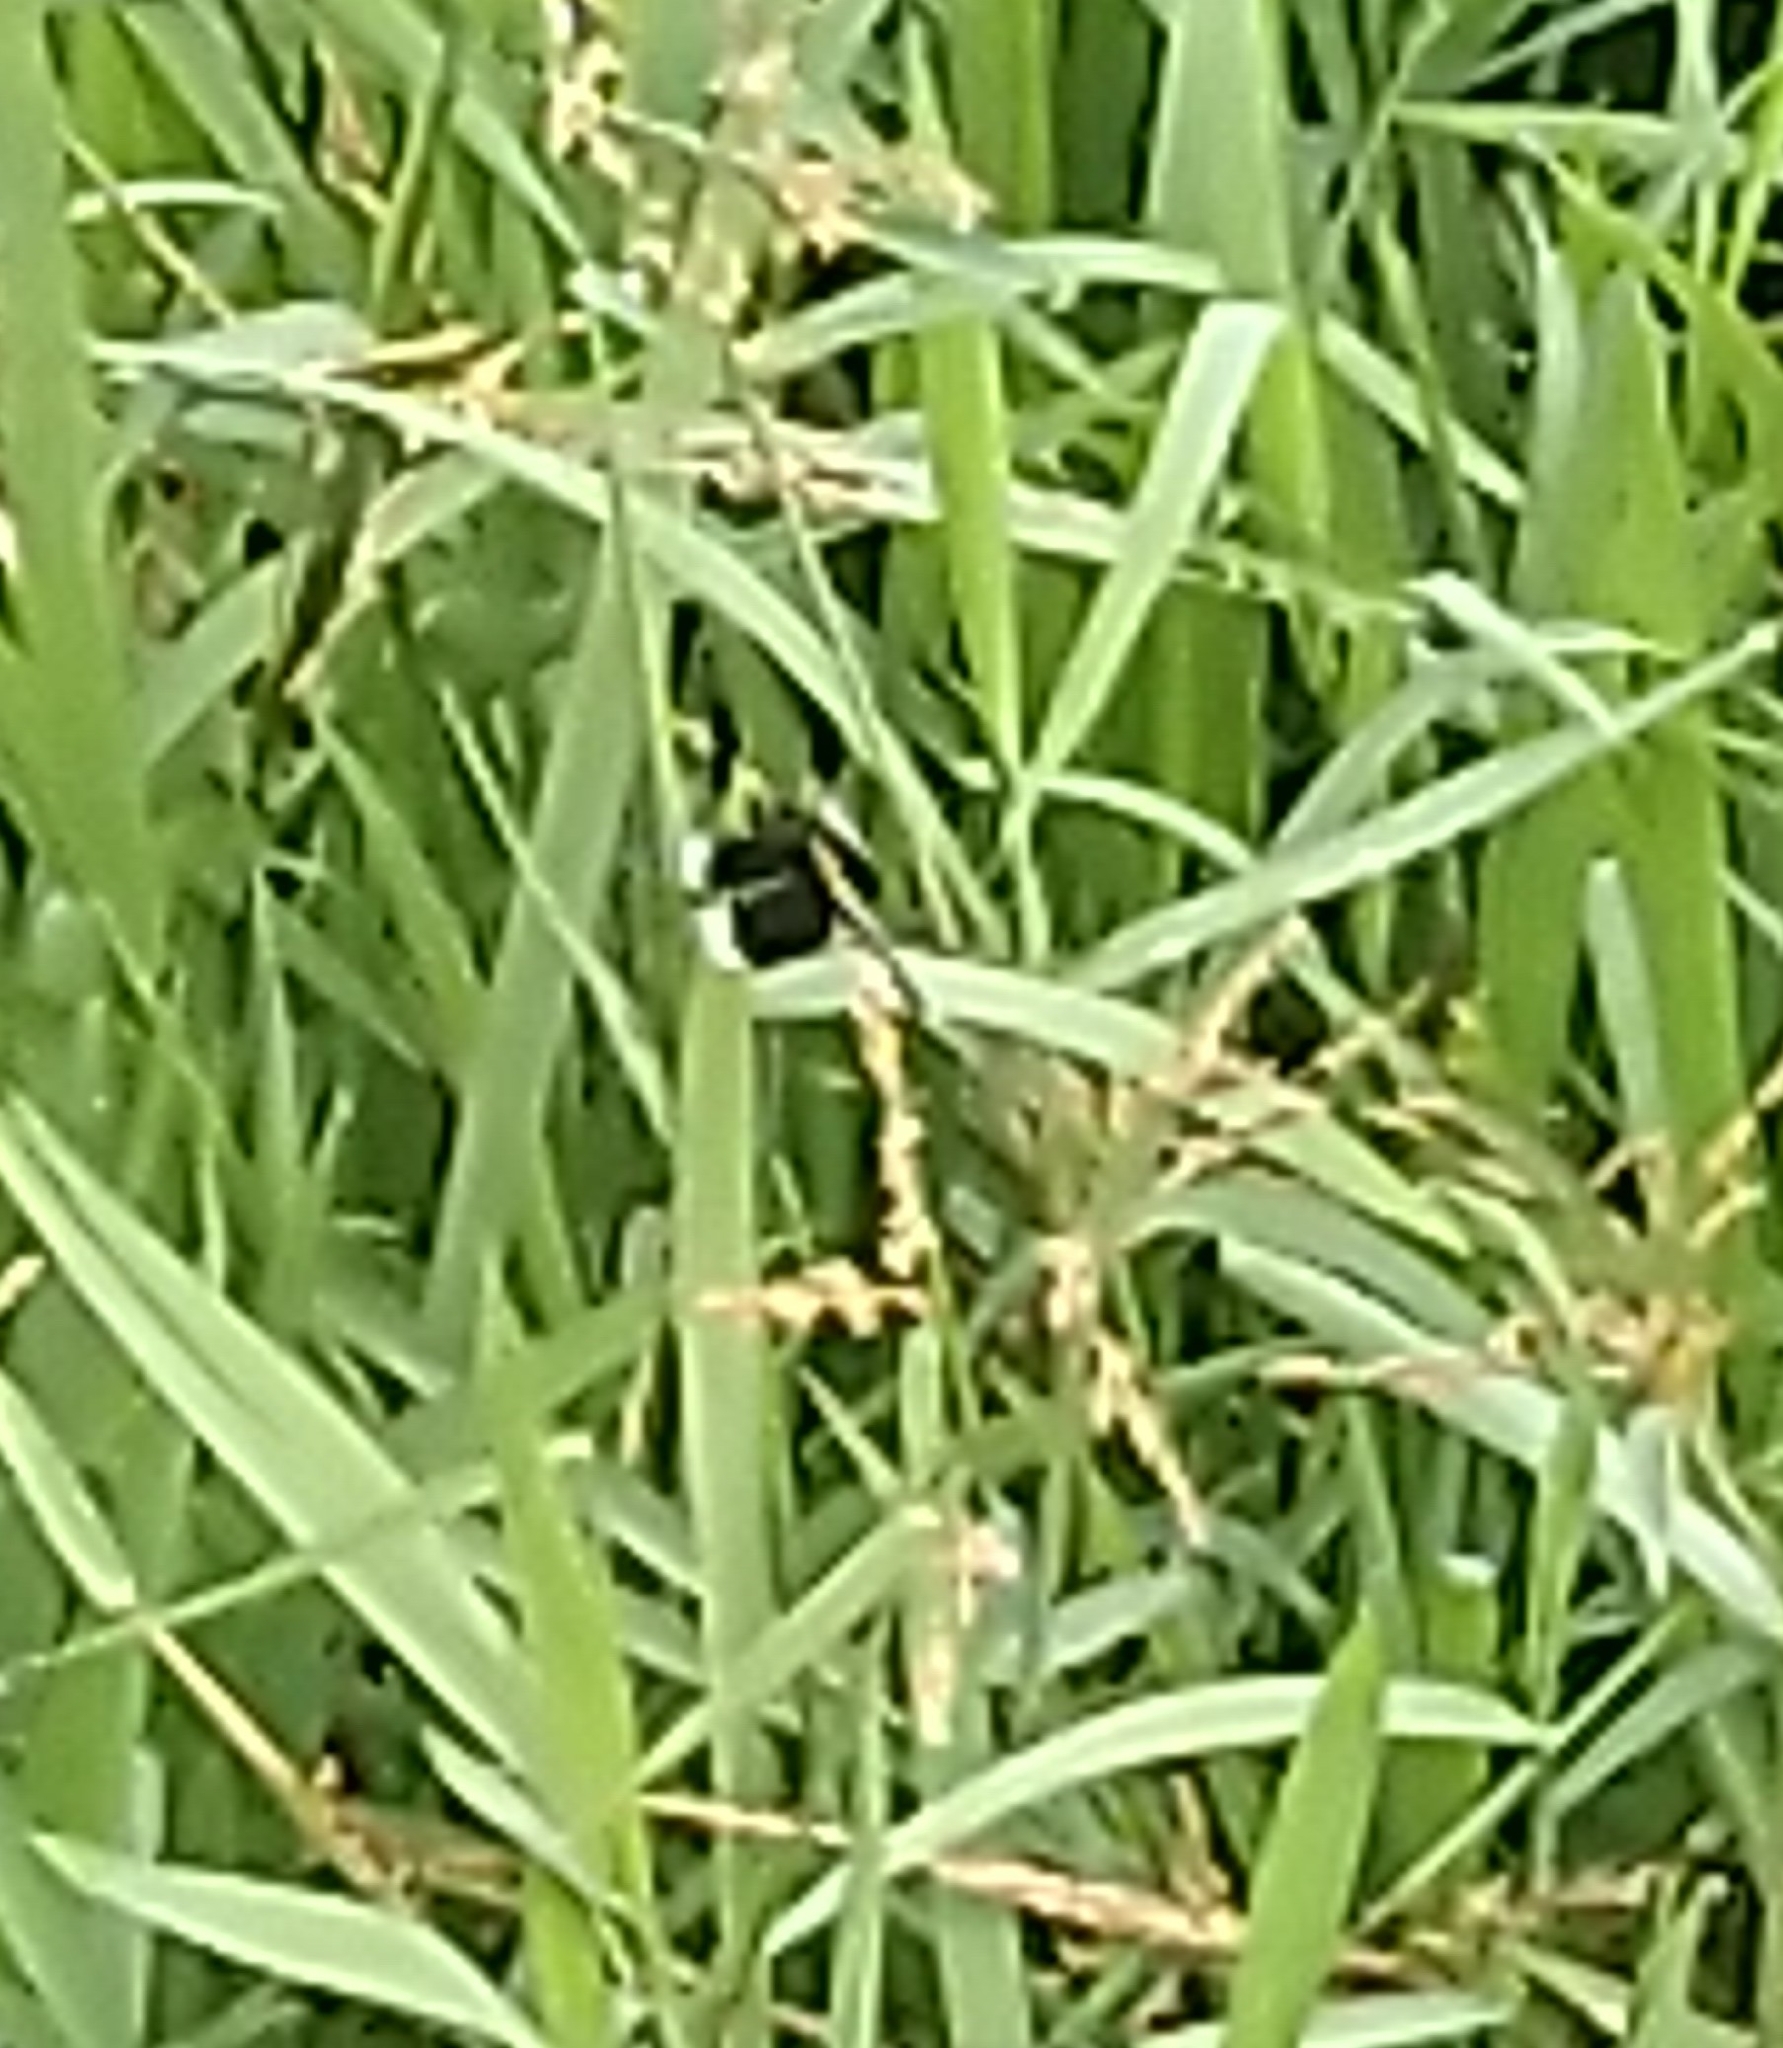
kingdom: Animalia
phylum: Arthropoda
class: Insecta
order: Odonata
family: Libellulidae
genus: Neurothemis
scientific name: Neurothemis tullia
